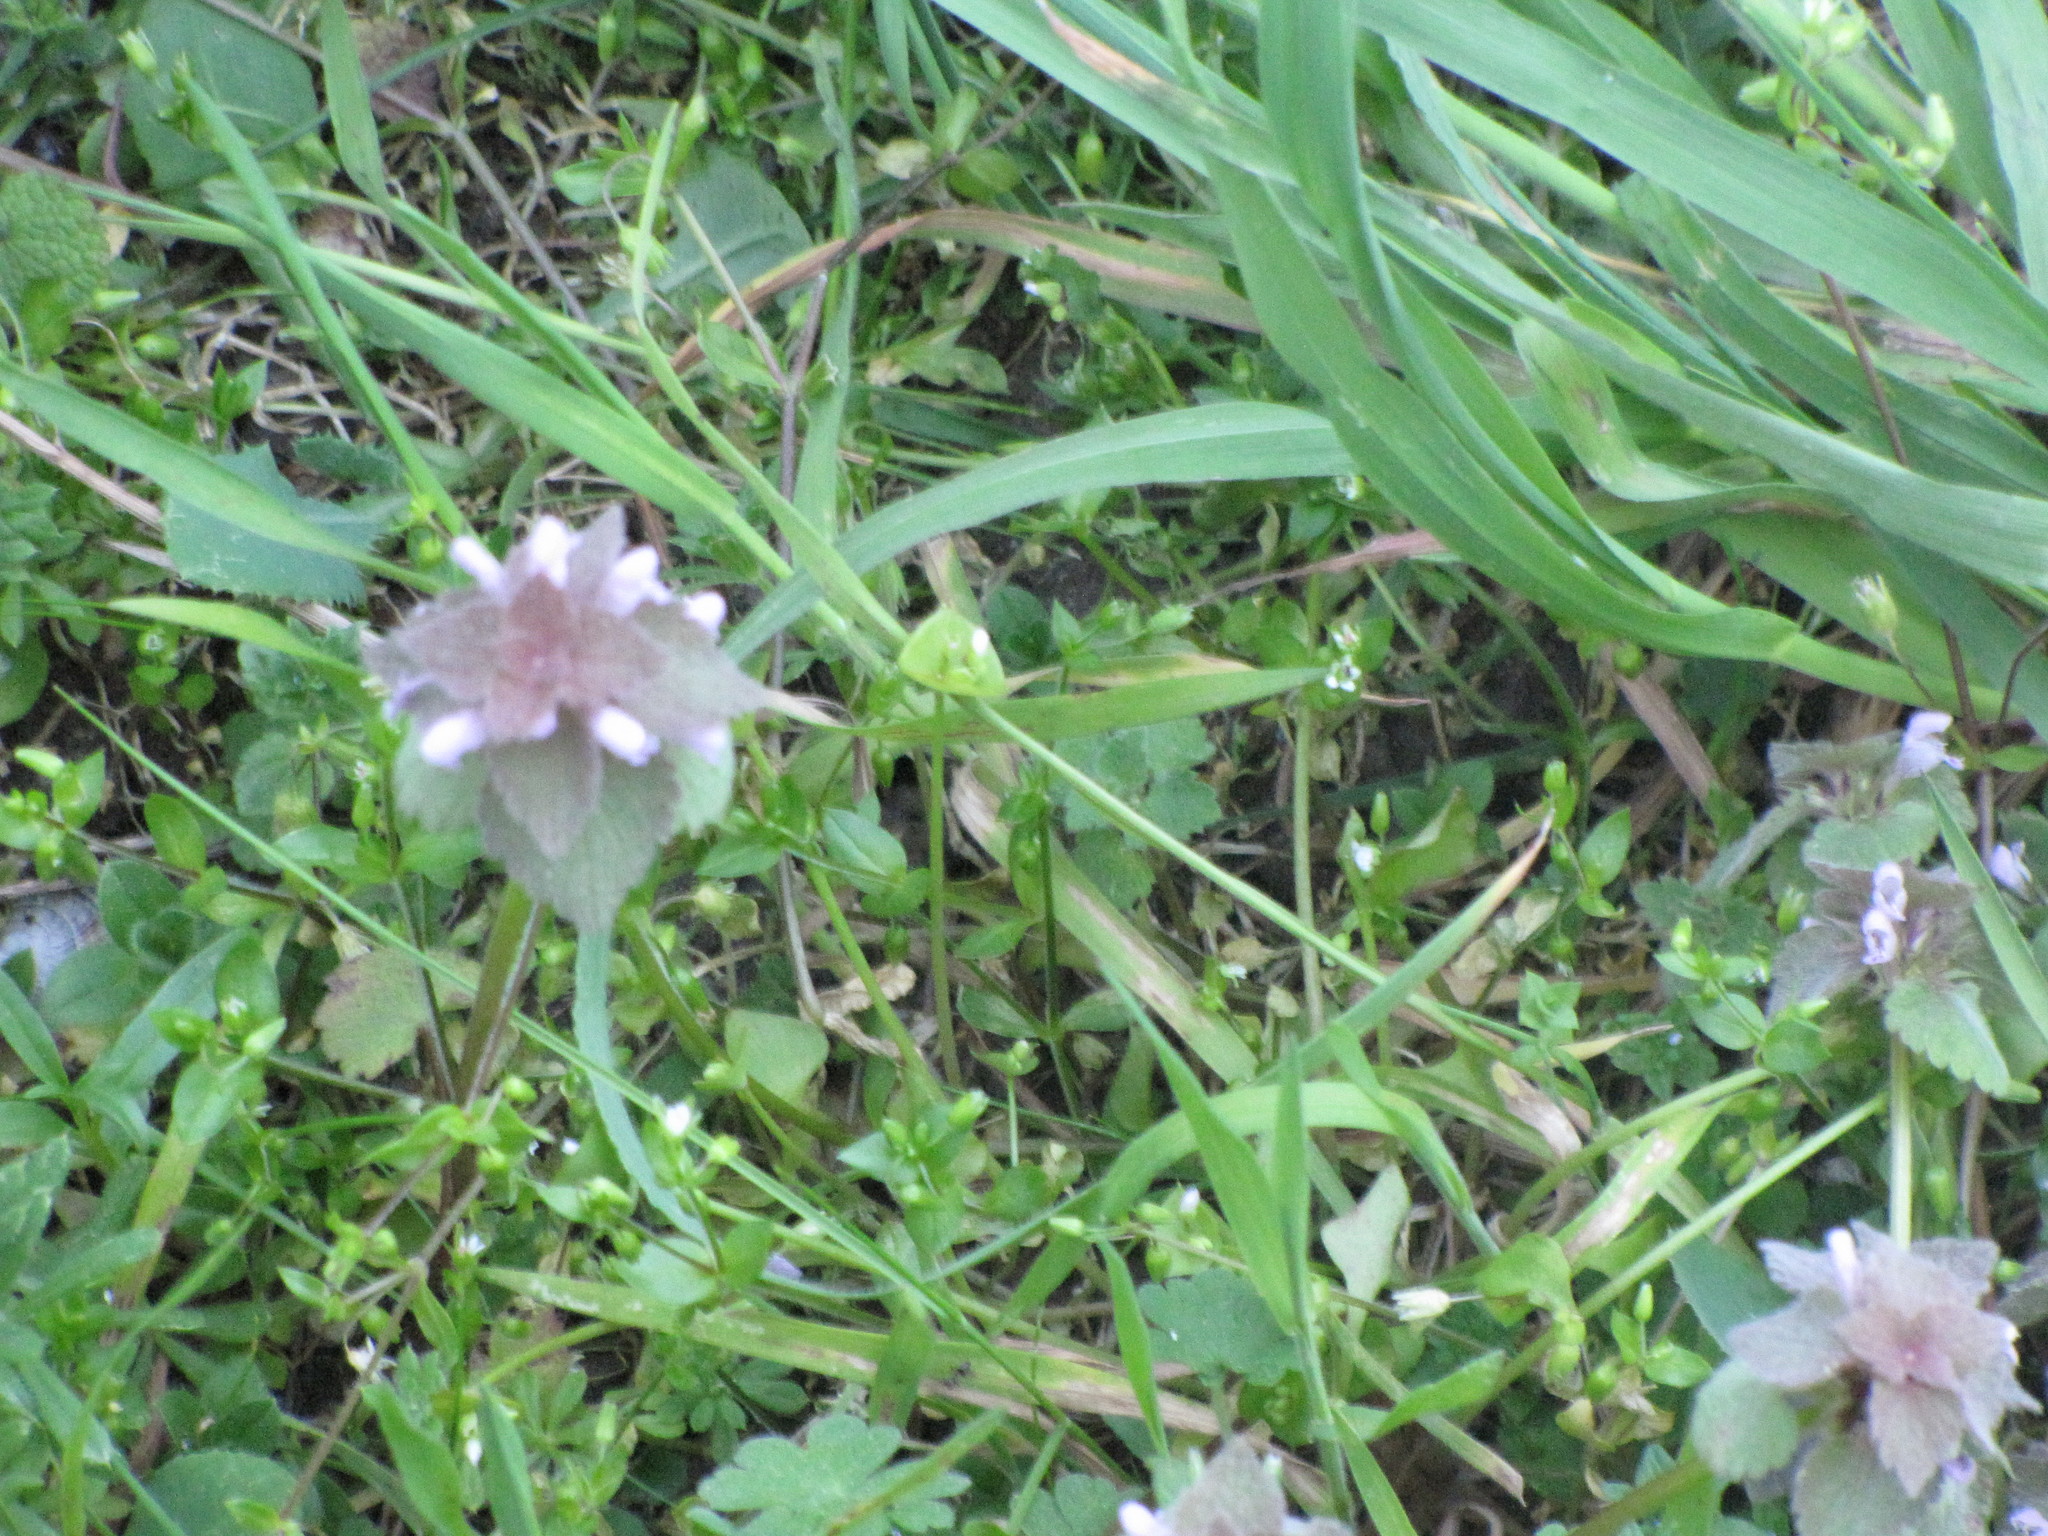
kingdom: Plantae
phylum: Tracheophyta
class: Magnoliopsida
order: Lamiales
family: Lamiaceae
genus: Lamium
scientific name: Lamium purpureum
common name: Red dead-nettle
